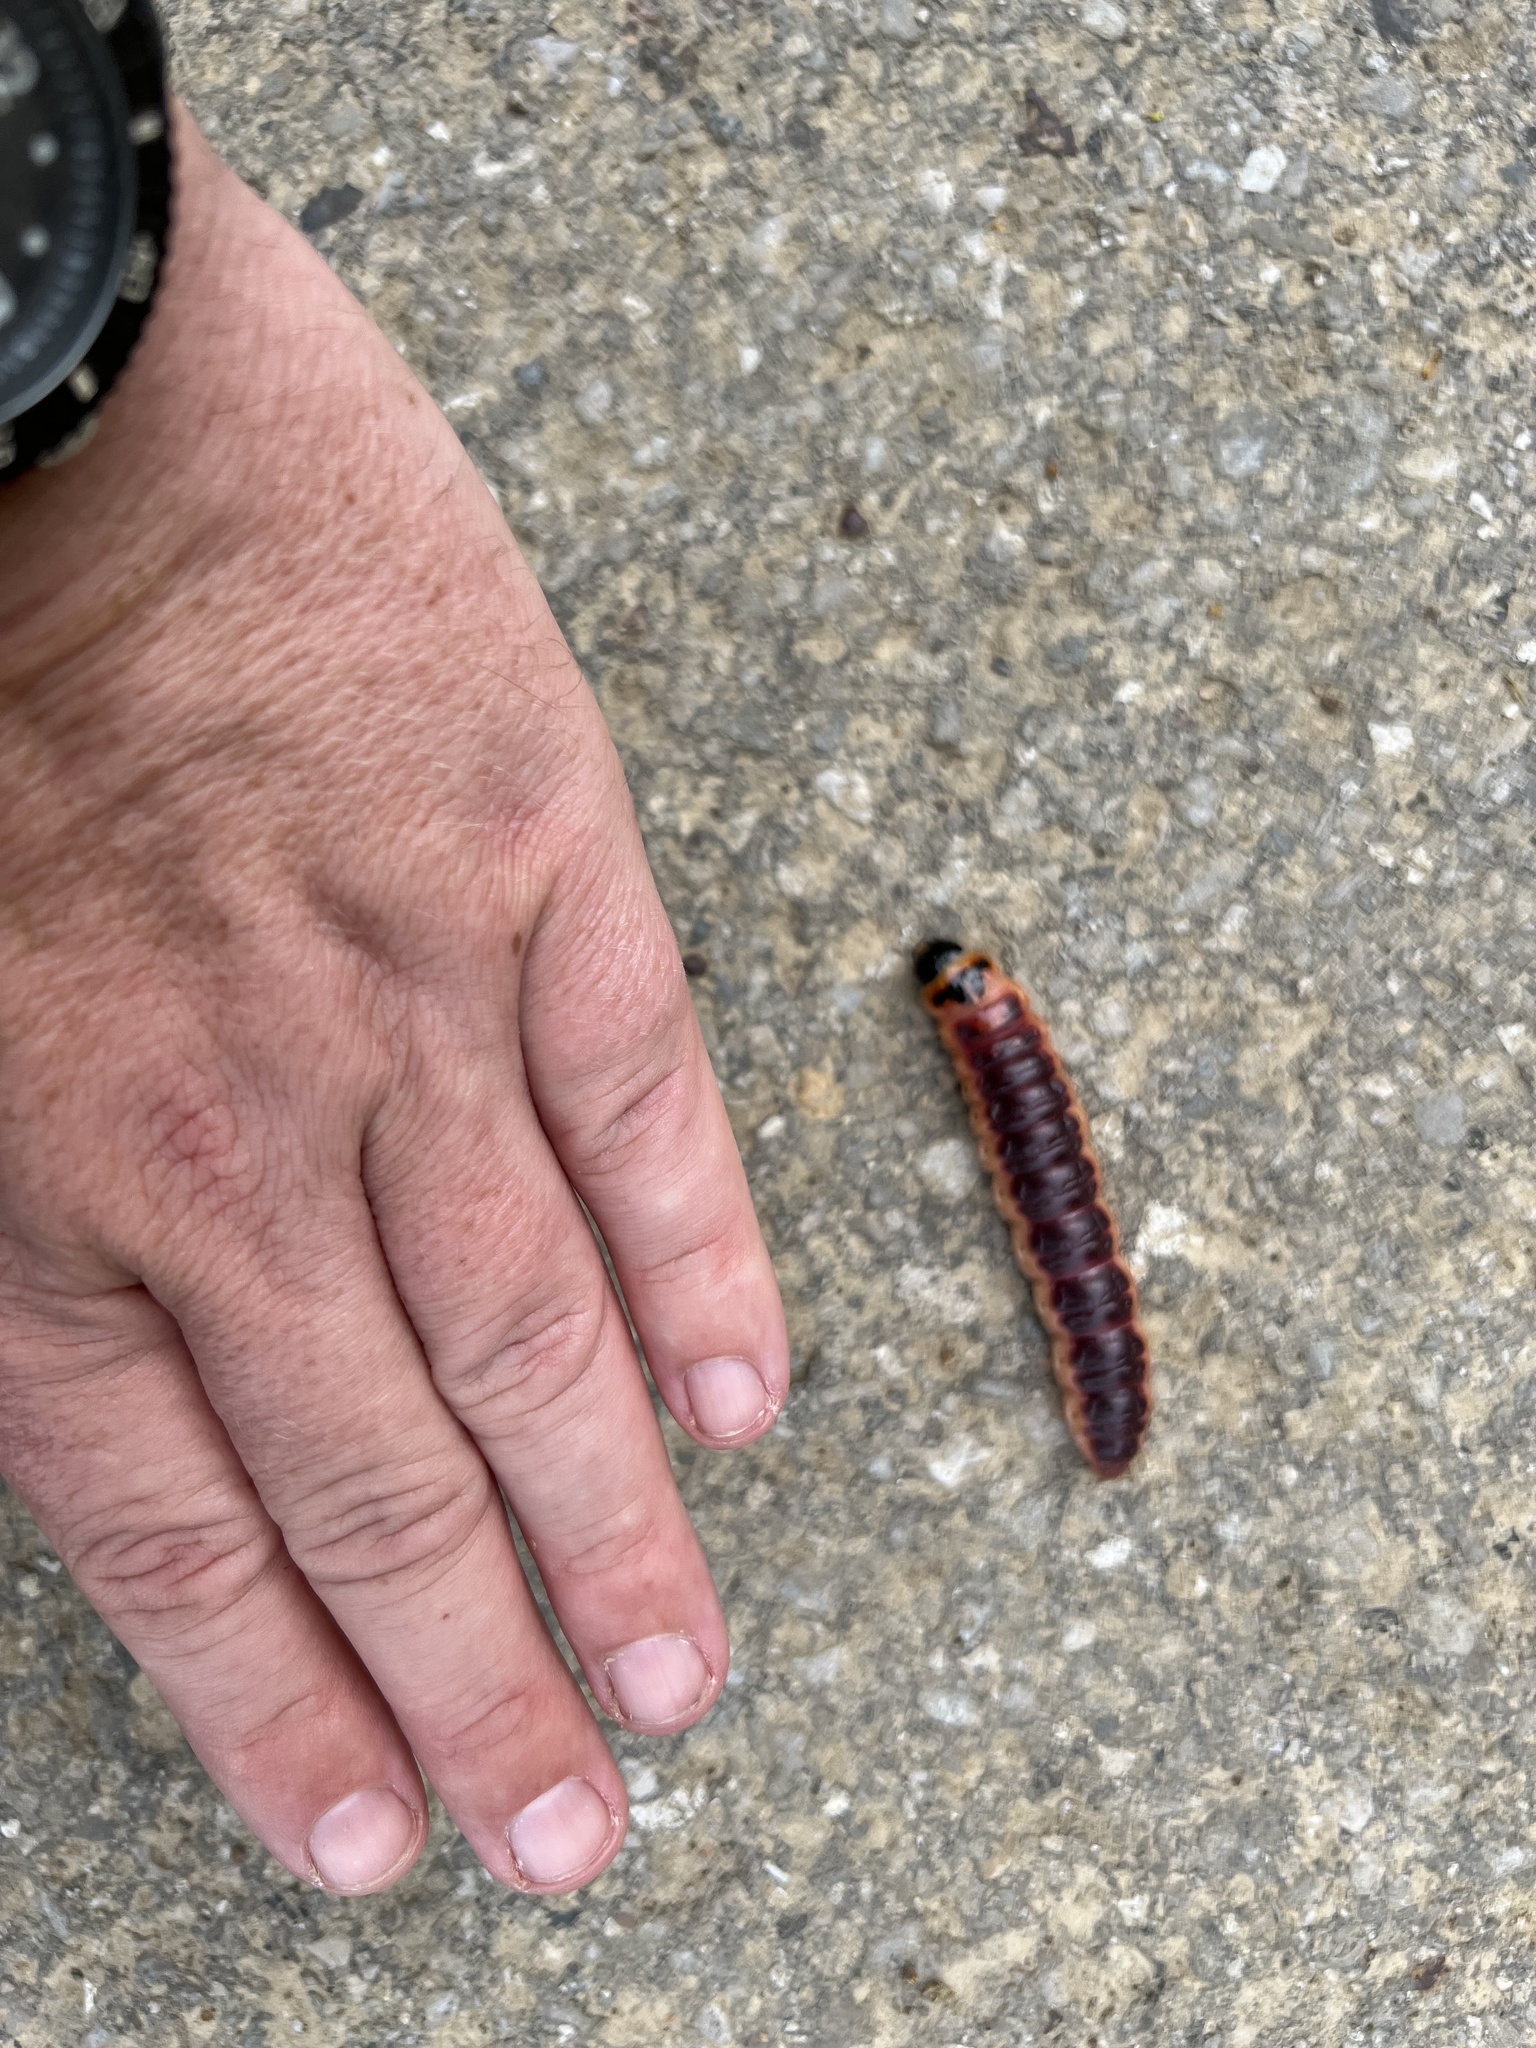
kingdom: Animalia
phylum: Arthropoda
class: Insecta
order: Lepidoptera
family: Cossidae
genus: Cossus
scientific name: Cossus cossus
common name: Goat moth
